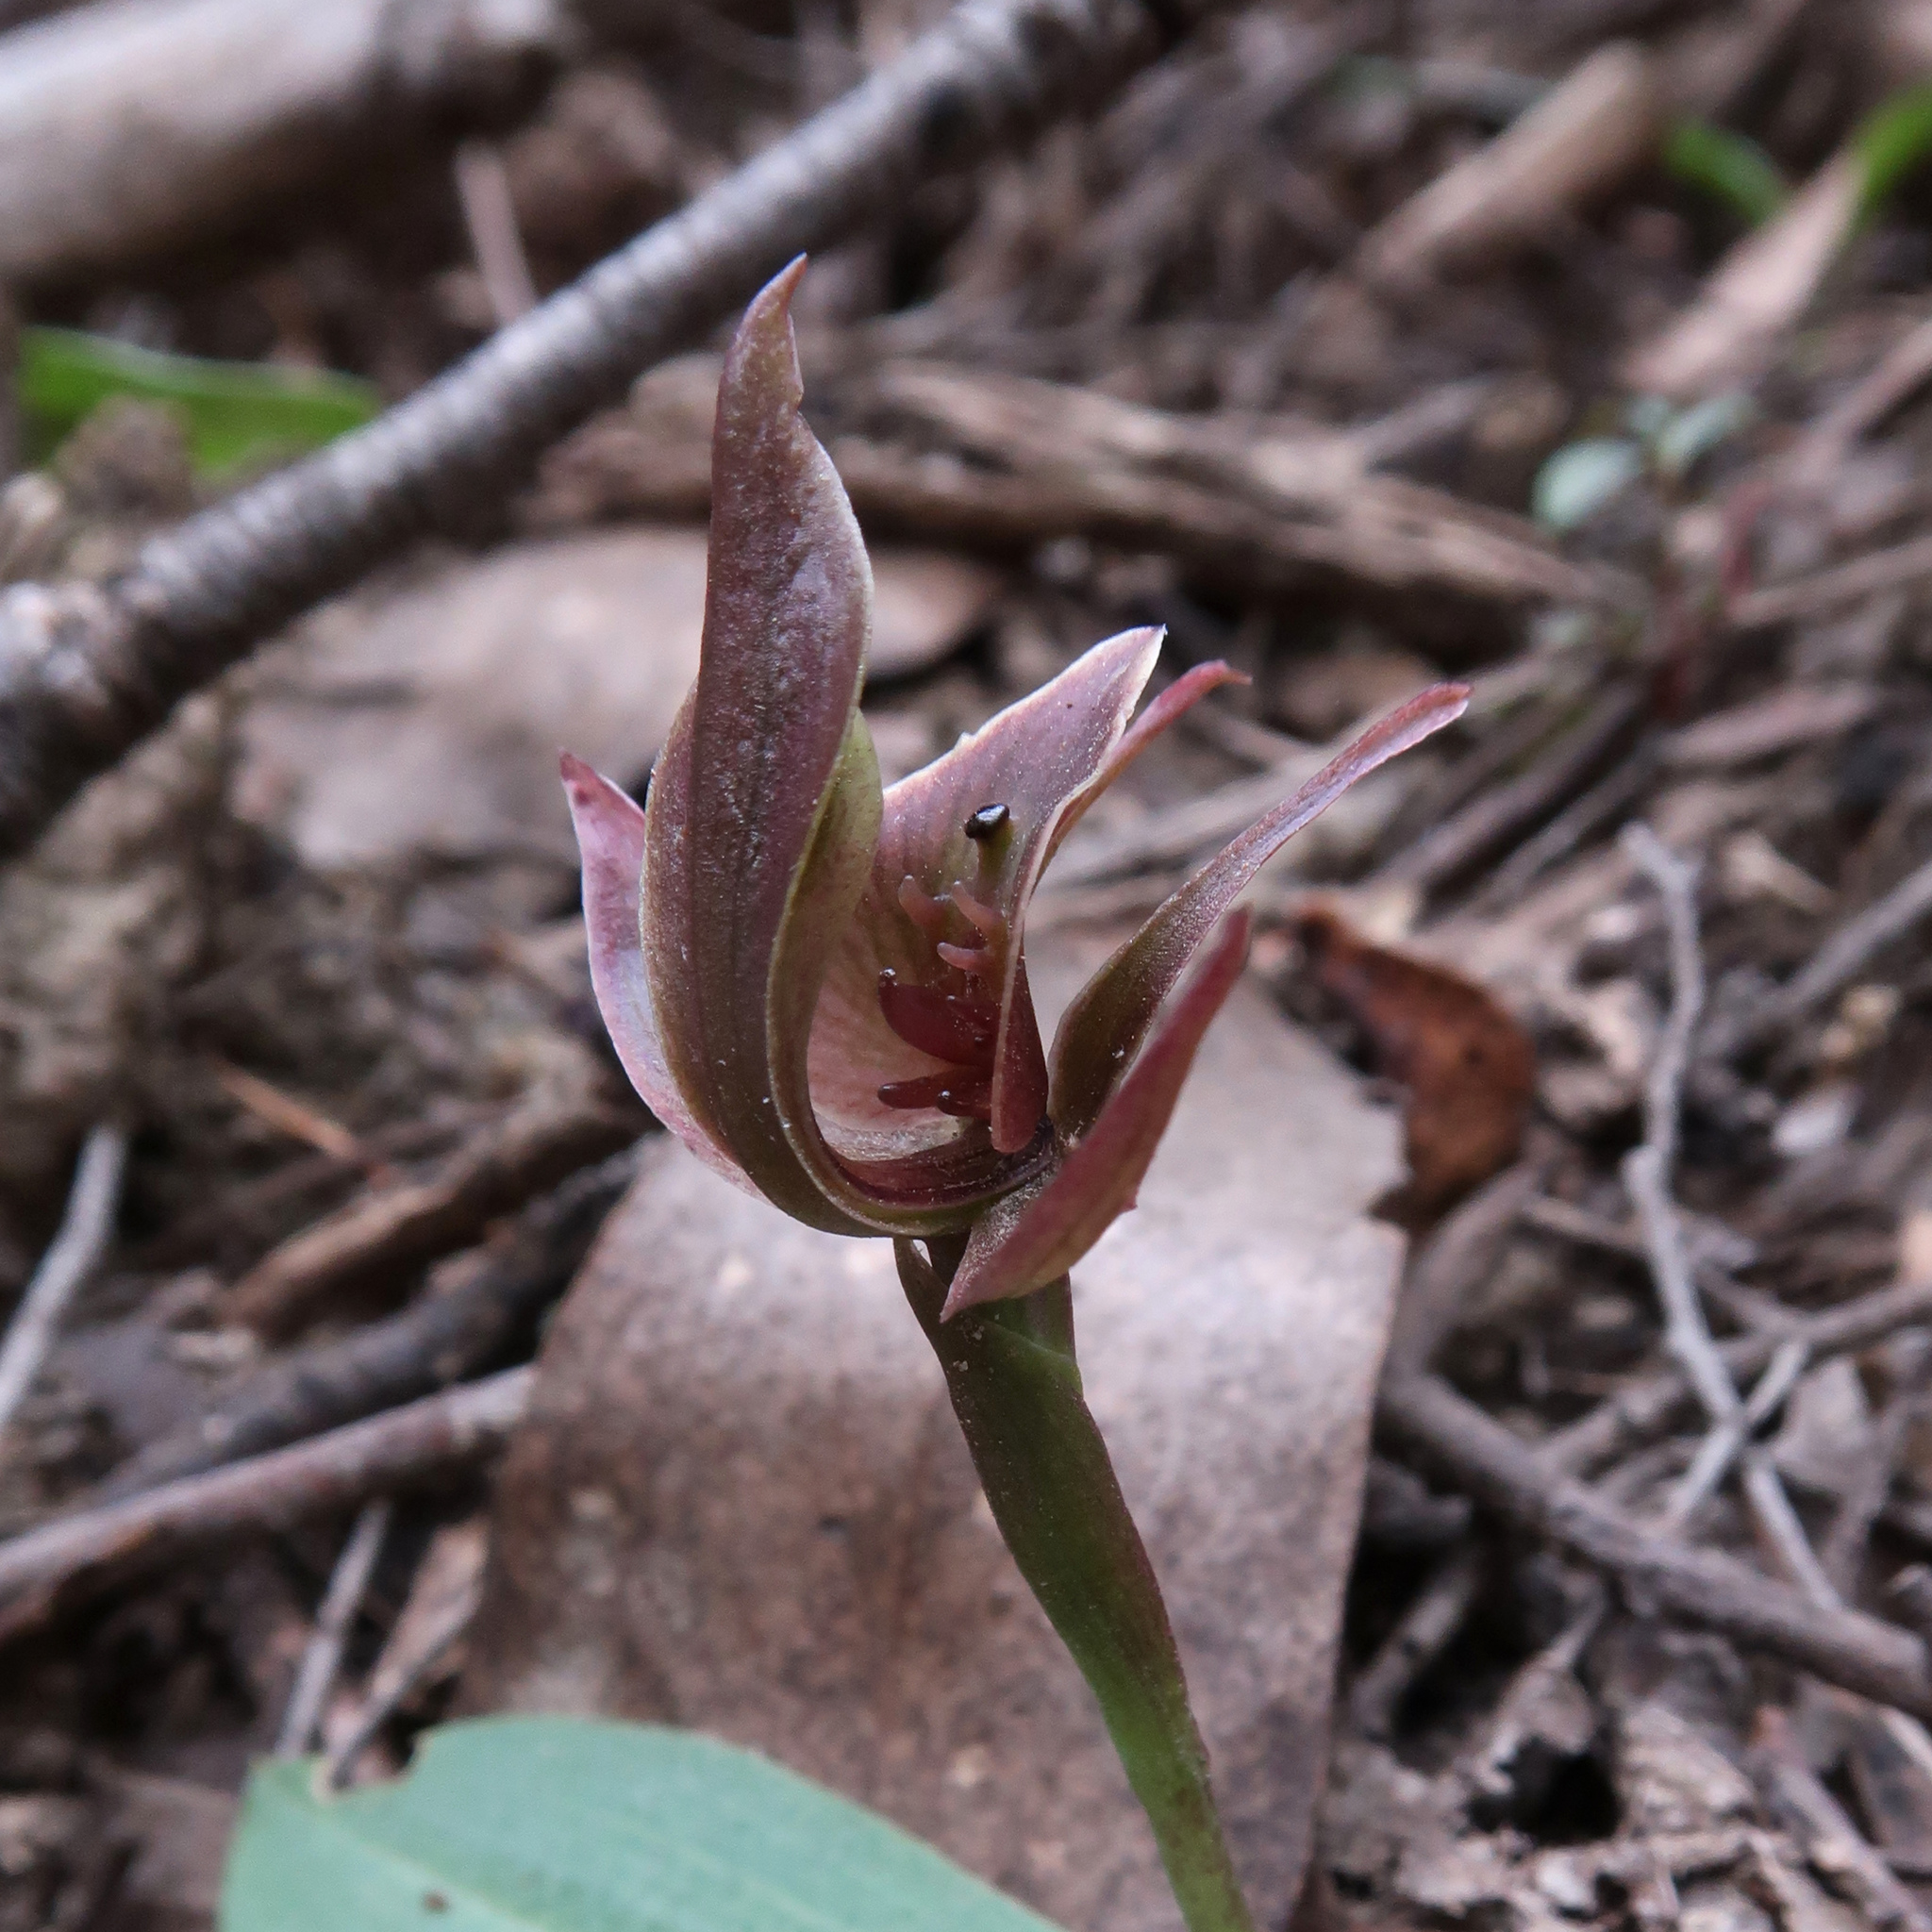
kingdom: Plantae
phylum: Tracheophyta
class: Liliopsida
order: Asparagales
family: Orchidaceae
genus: Chiloglottis
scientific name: Chiloglottis triceratops
